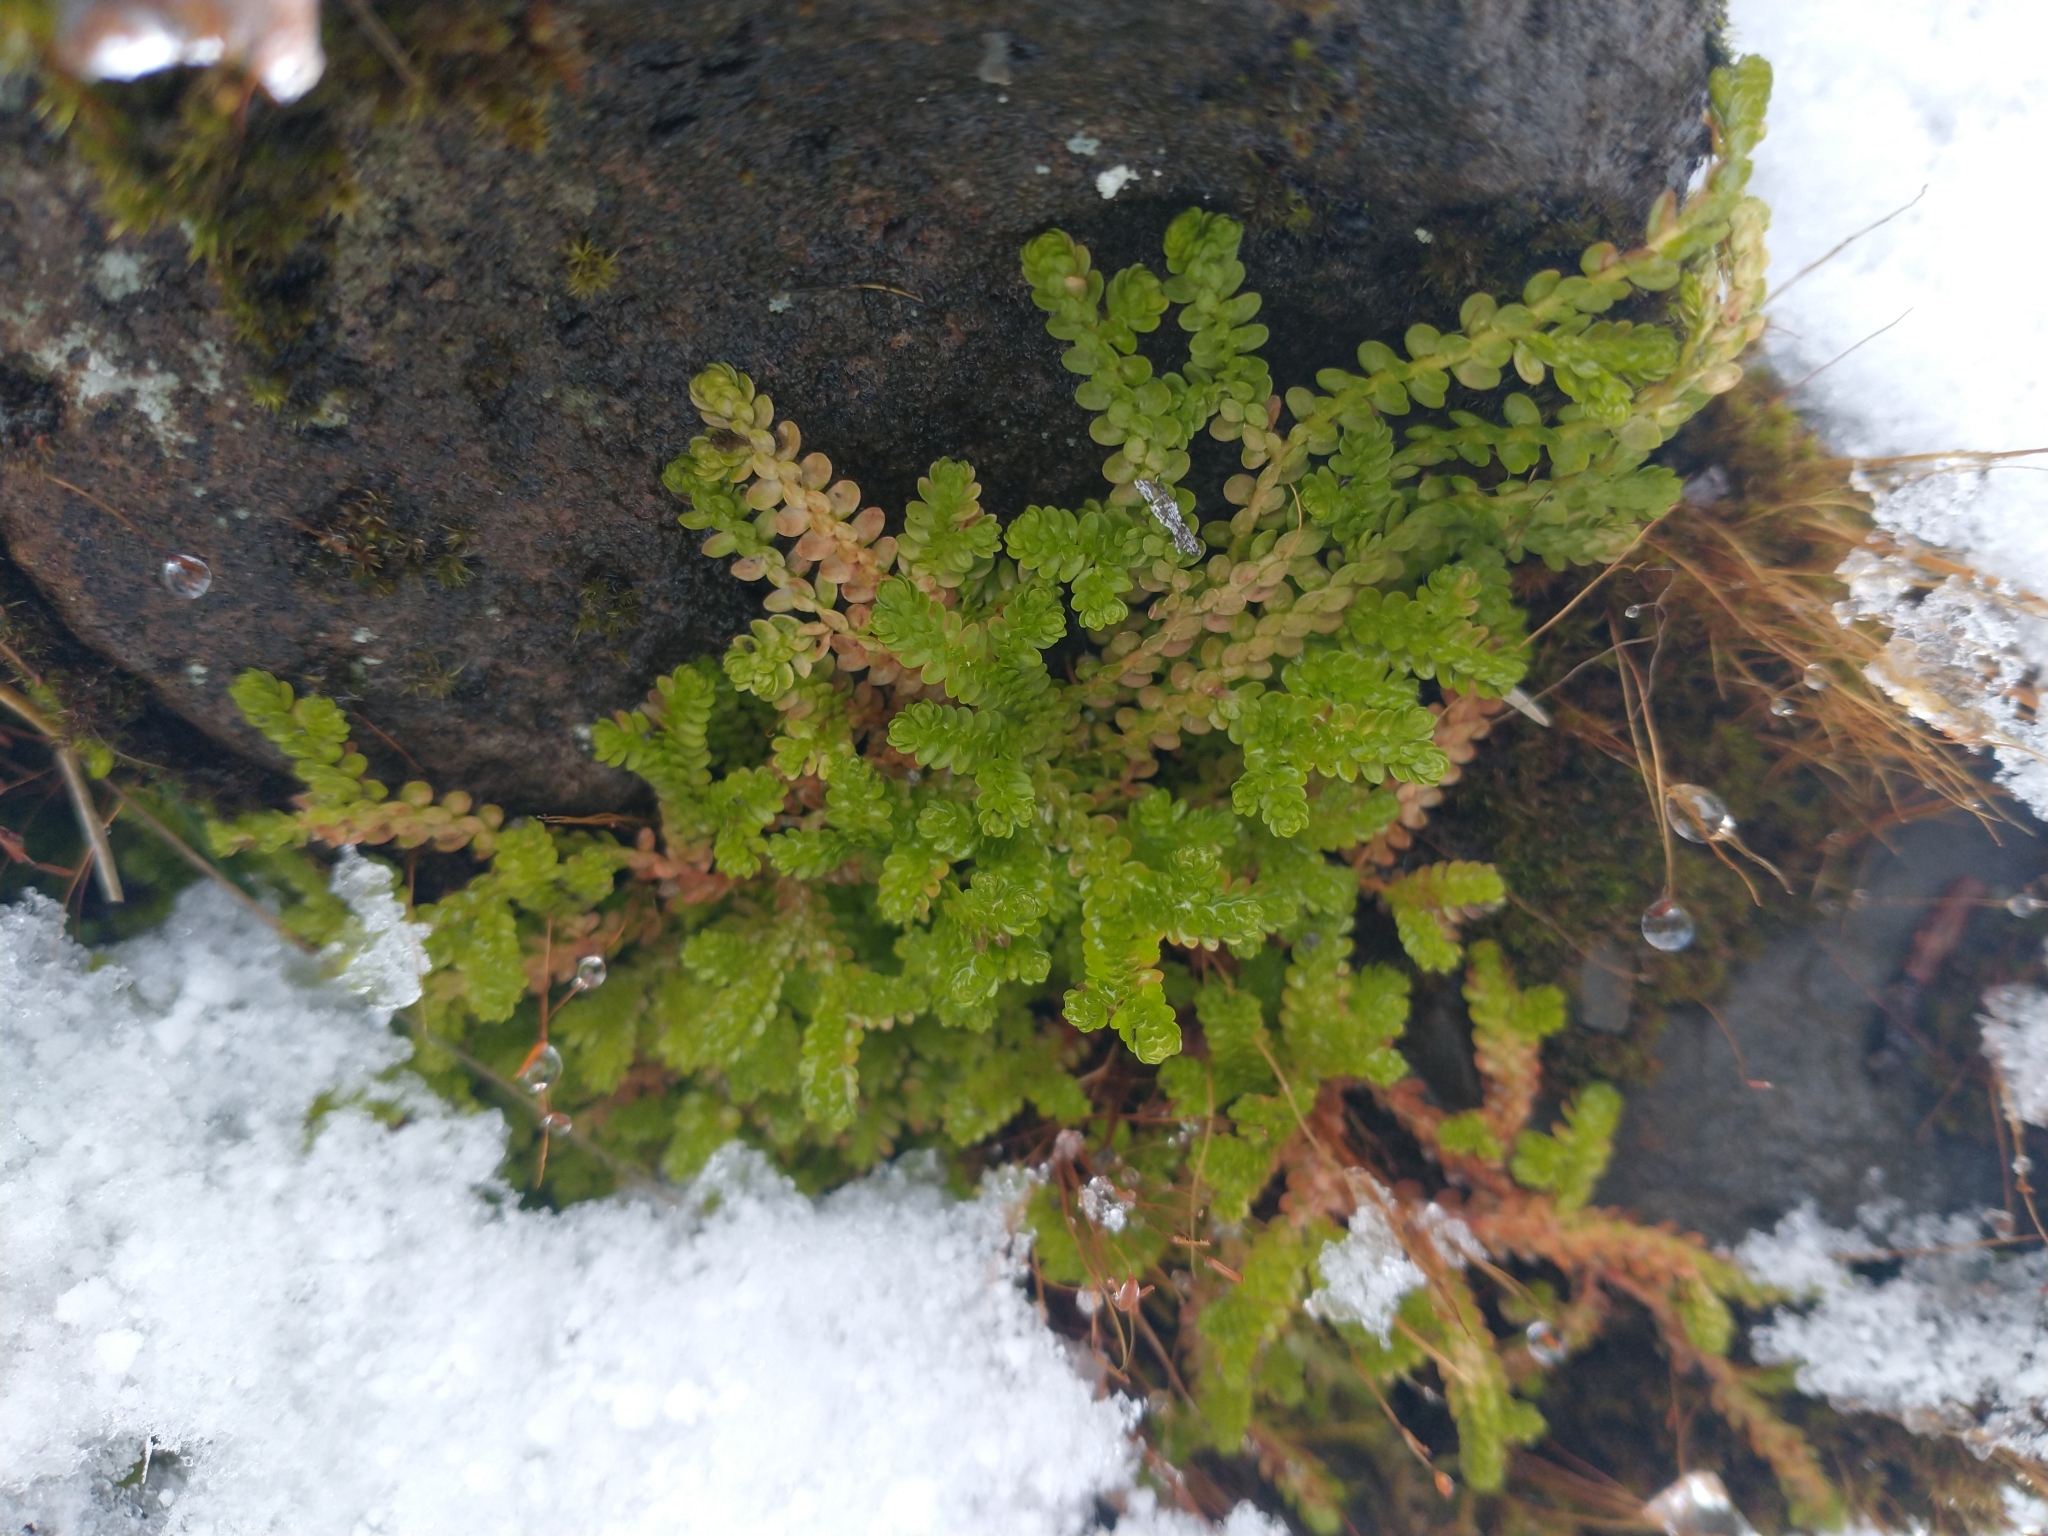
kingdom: Plantae
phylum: Tracheophyta
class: Lycopodiopsida
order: Selaginellales
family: Selaginellaceae
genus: Selaginella
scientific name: Selaginella douglasii
